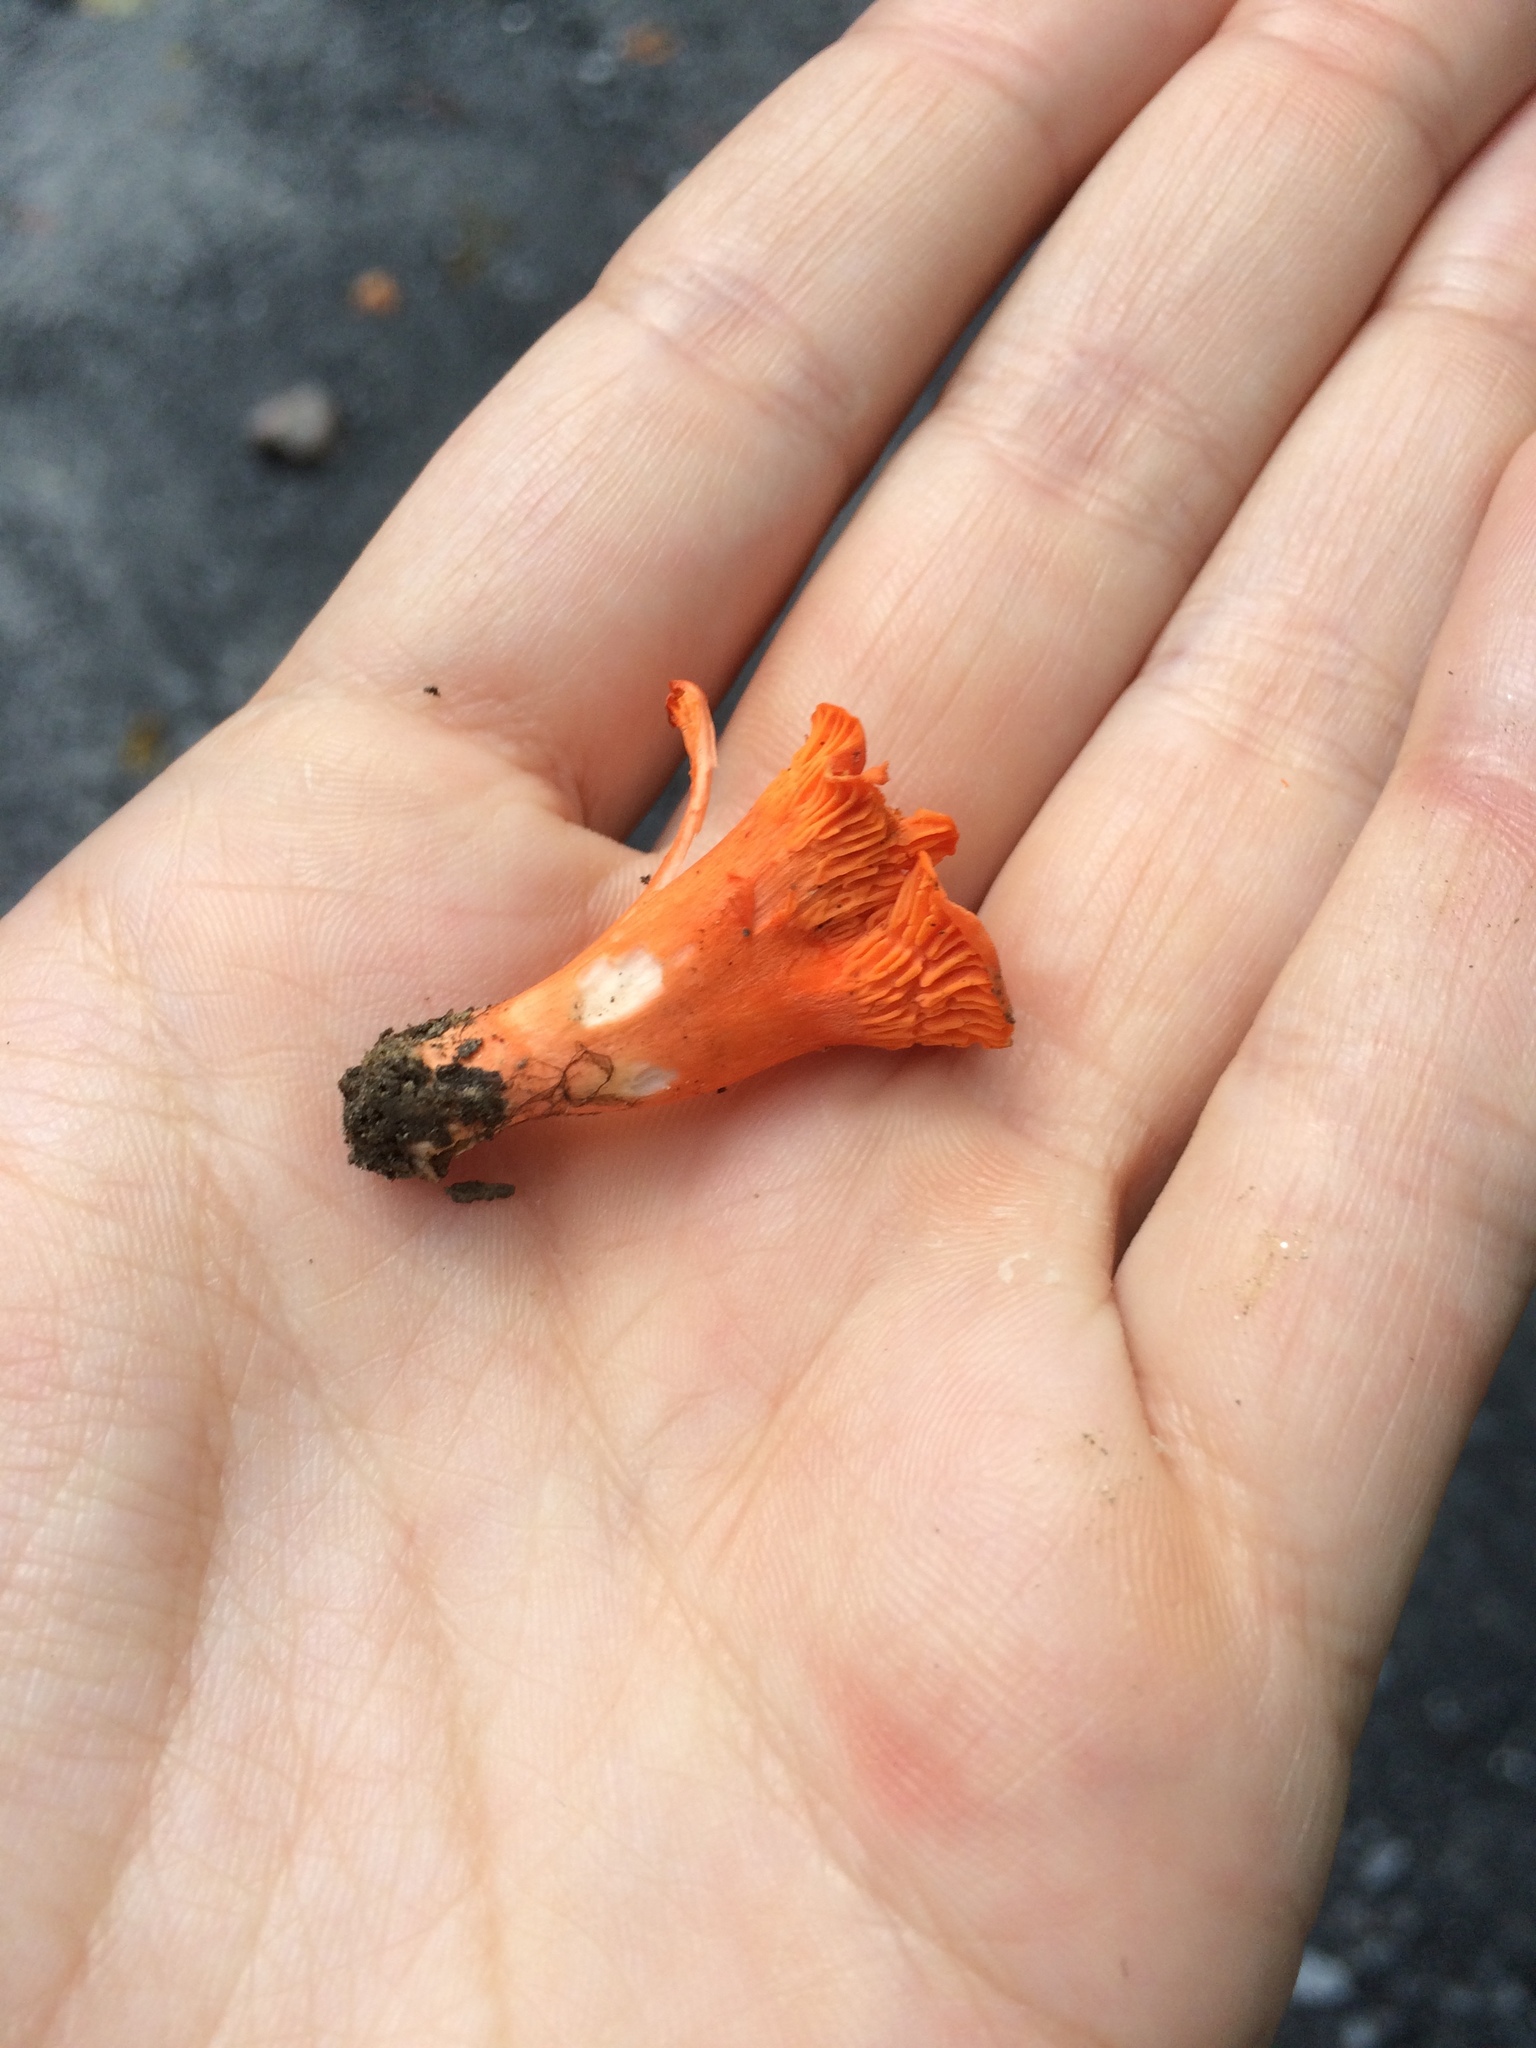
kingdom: Fungi
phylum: Basidiomycota
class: Agaricomycetes
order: Cantharellales
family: Hydnaceae
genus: Cantharellus
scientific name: Cantharellus cinnabarinus
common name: Cinnabar chanterelle
